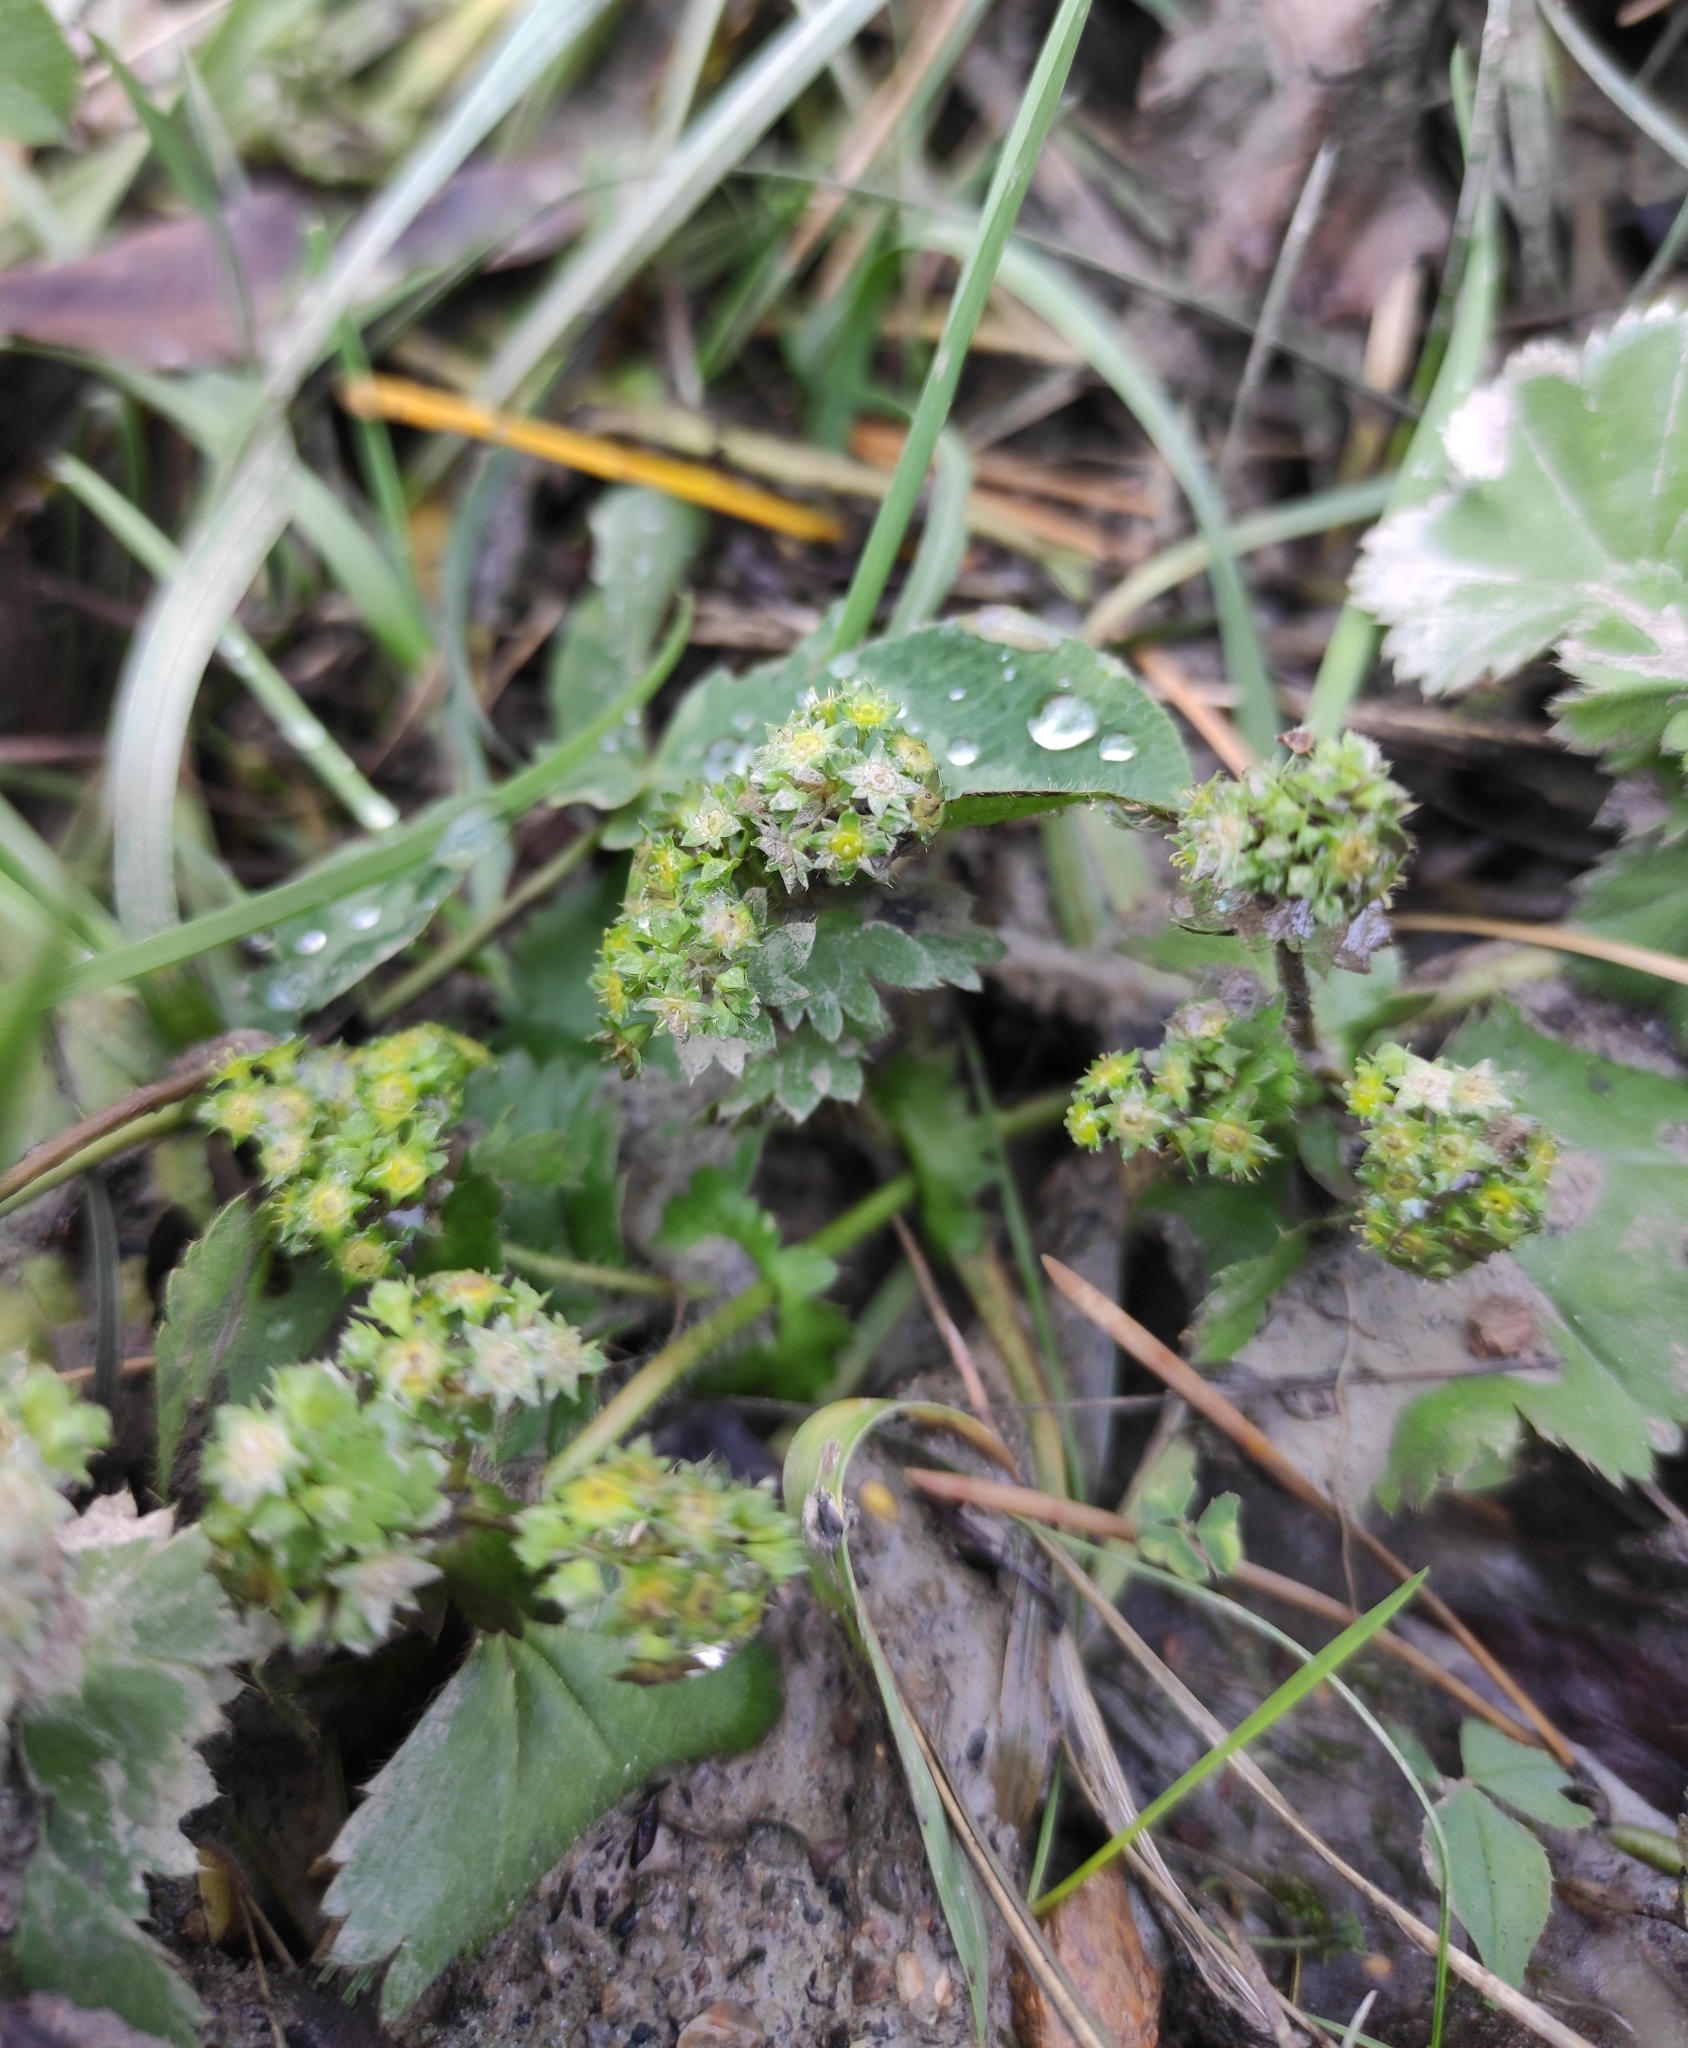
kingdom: Plantae
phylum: Tracheophyta
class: Magnoliopsida
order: Rosales
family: Rosaceae
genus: Alchemilla
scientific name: Alchemilla pachyphylla
